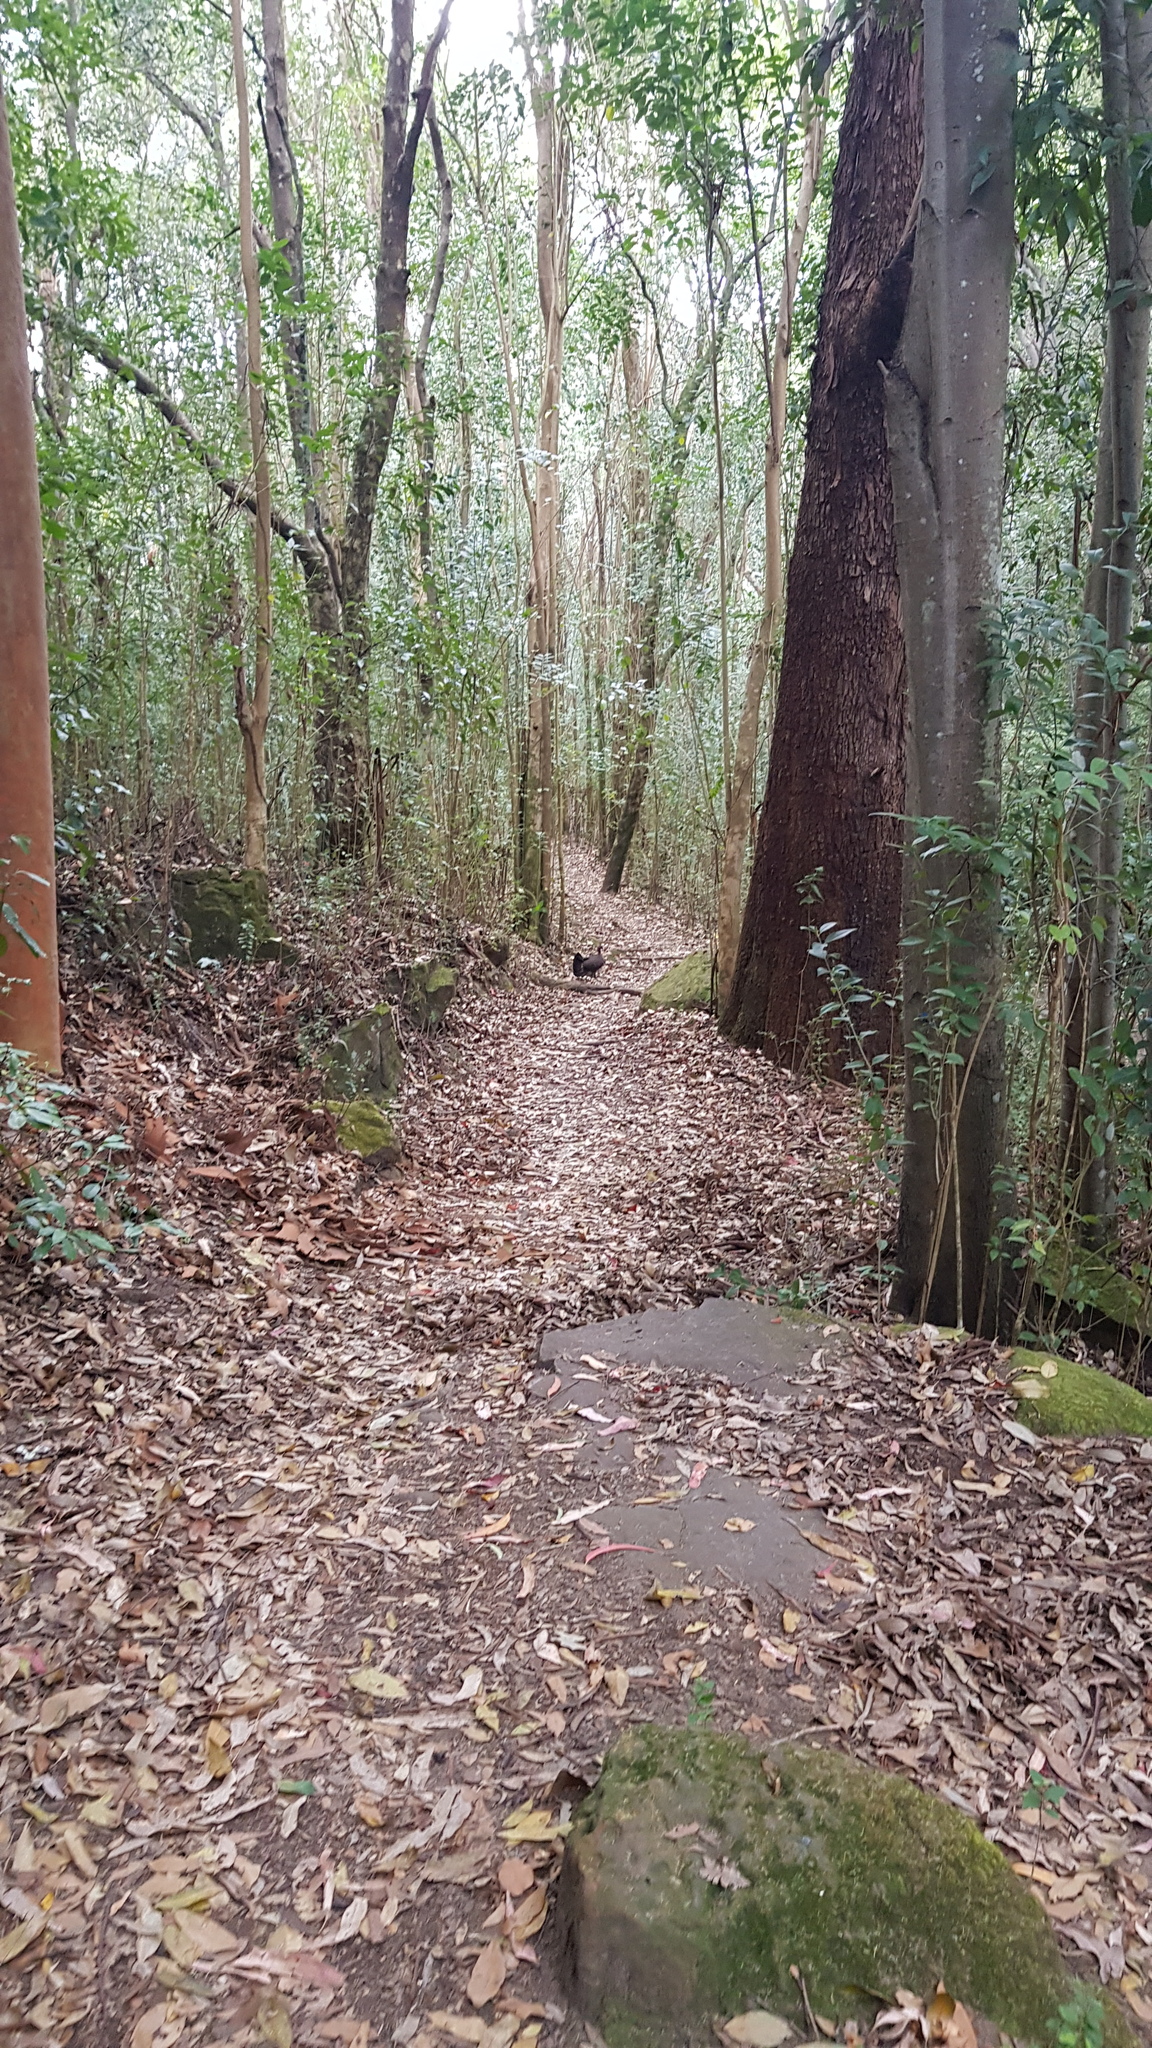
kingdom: Animalia
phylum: Chordata
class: Aves
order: Galliformes
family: Megapodiidae
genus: Alectura
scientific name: Alectura lathami
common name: Australian brushturkey
